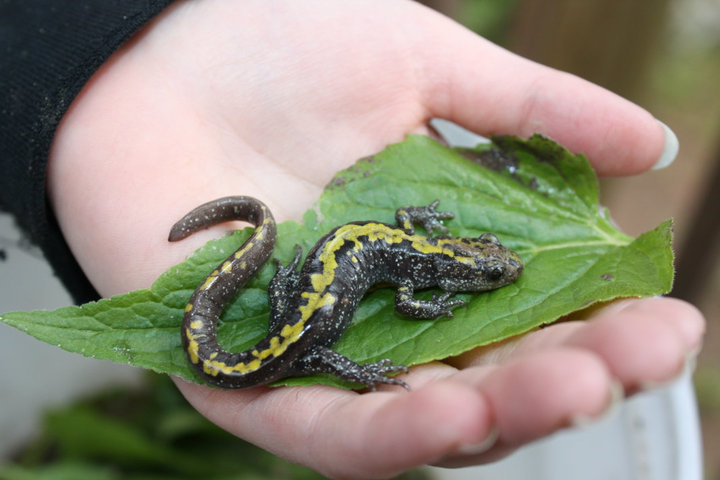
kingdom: Animalia
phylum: Chordata
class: Amphibia
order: Caudata
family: Ambystomatidae
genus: Ambystoma
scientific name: Ambystoma macrodactylum
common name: Long-toed salamander
